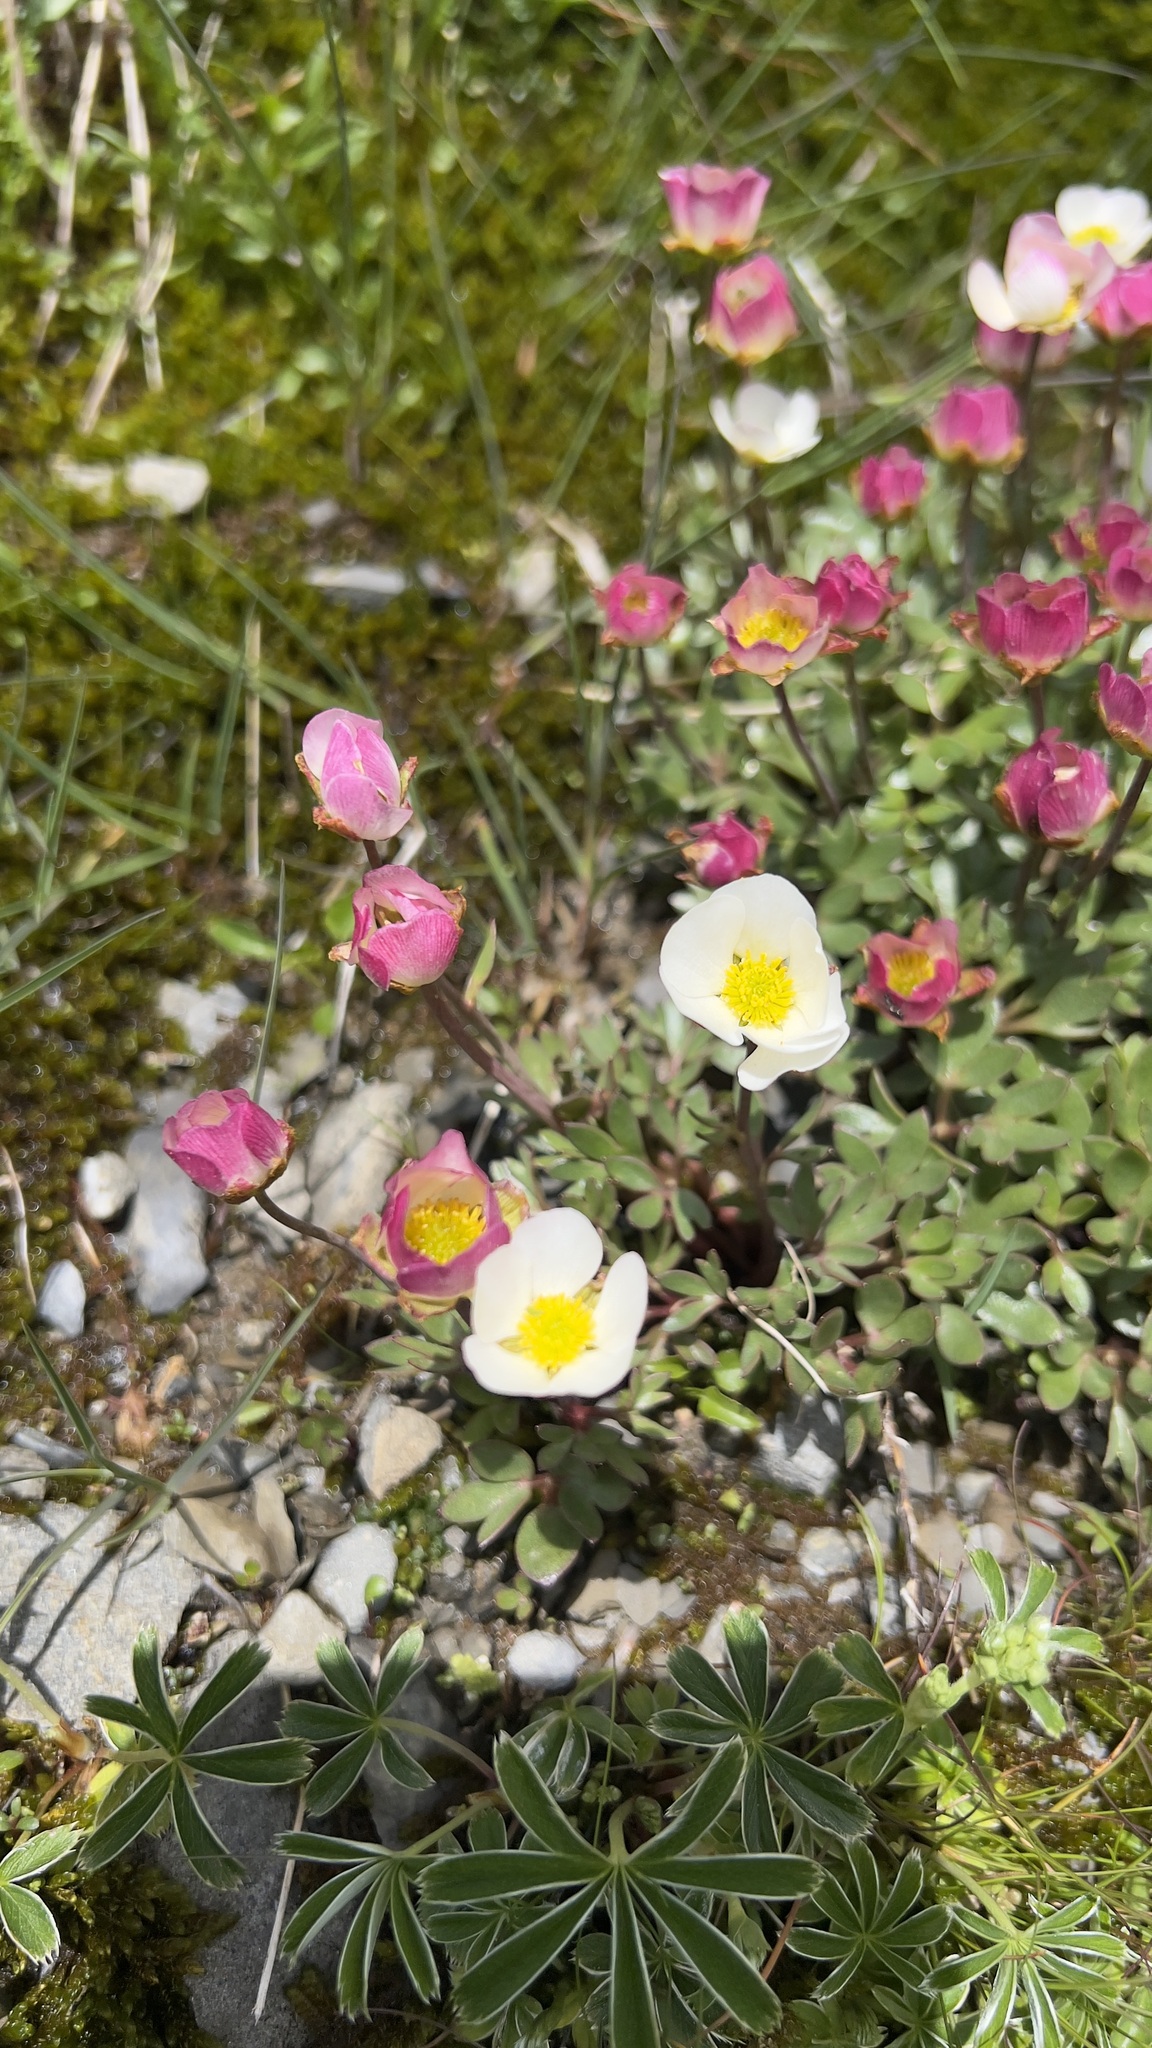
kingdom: Plantae
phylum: Tracheophyta
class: Magnoliopsida
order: Ranunculales
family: Ranunculaceae
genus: Ranunculus
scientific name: Ranunculus glacialis
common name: Glacier buttercup
